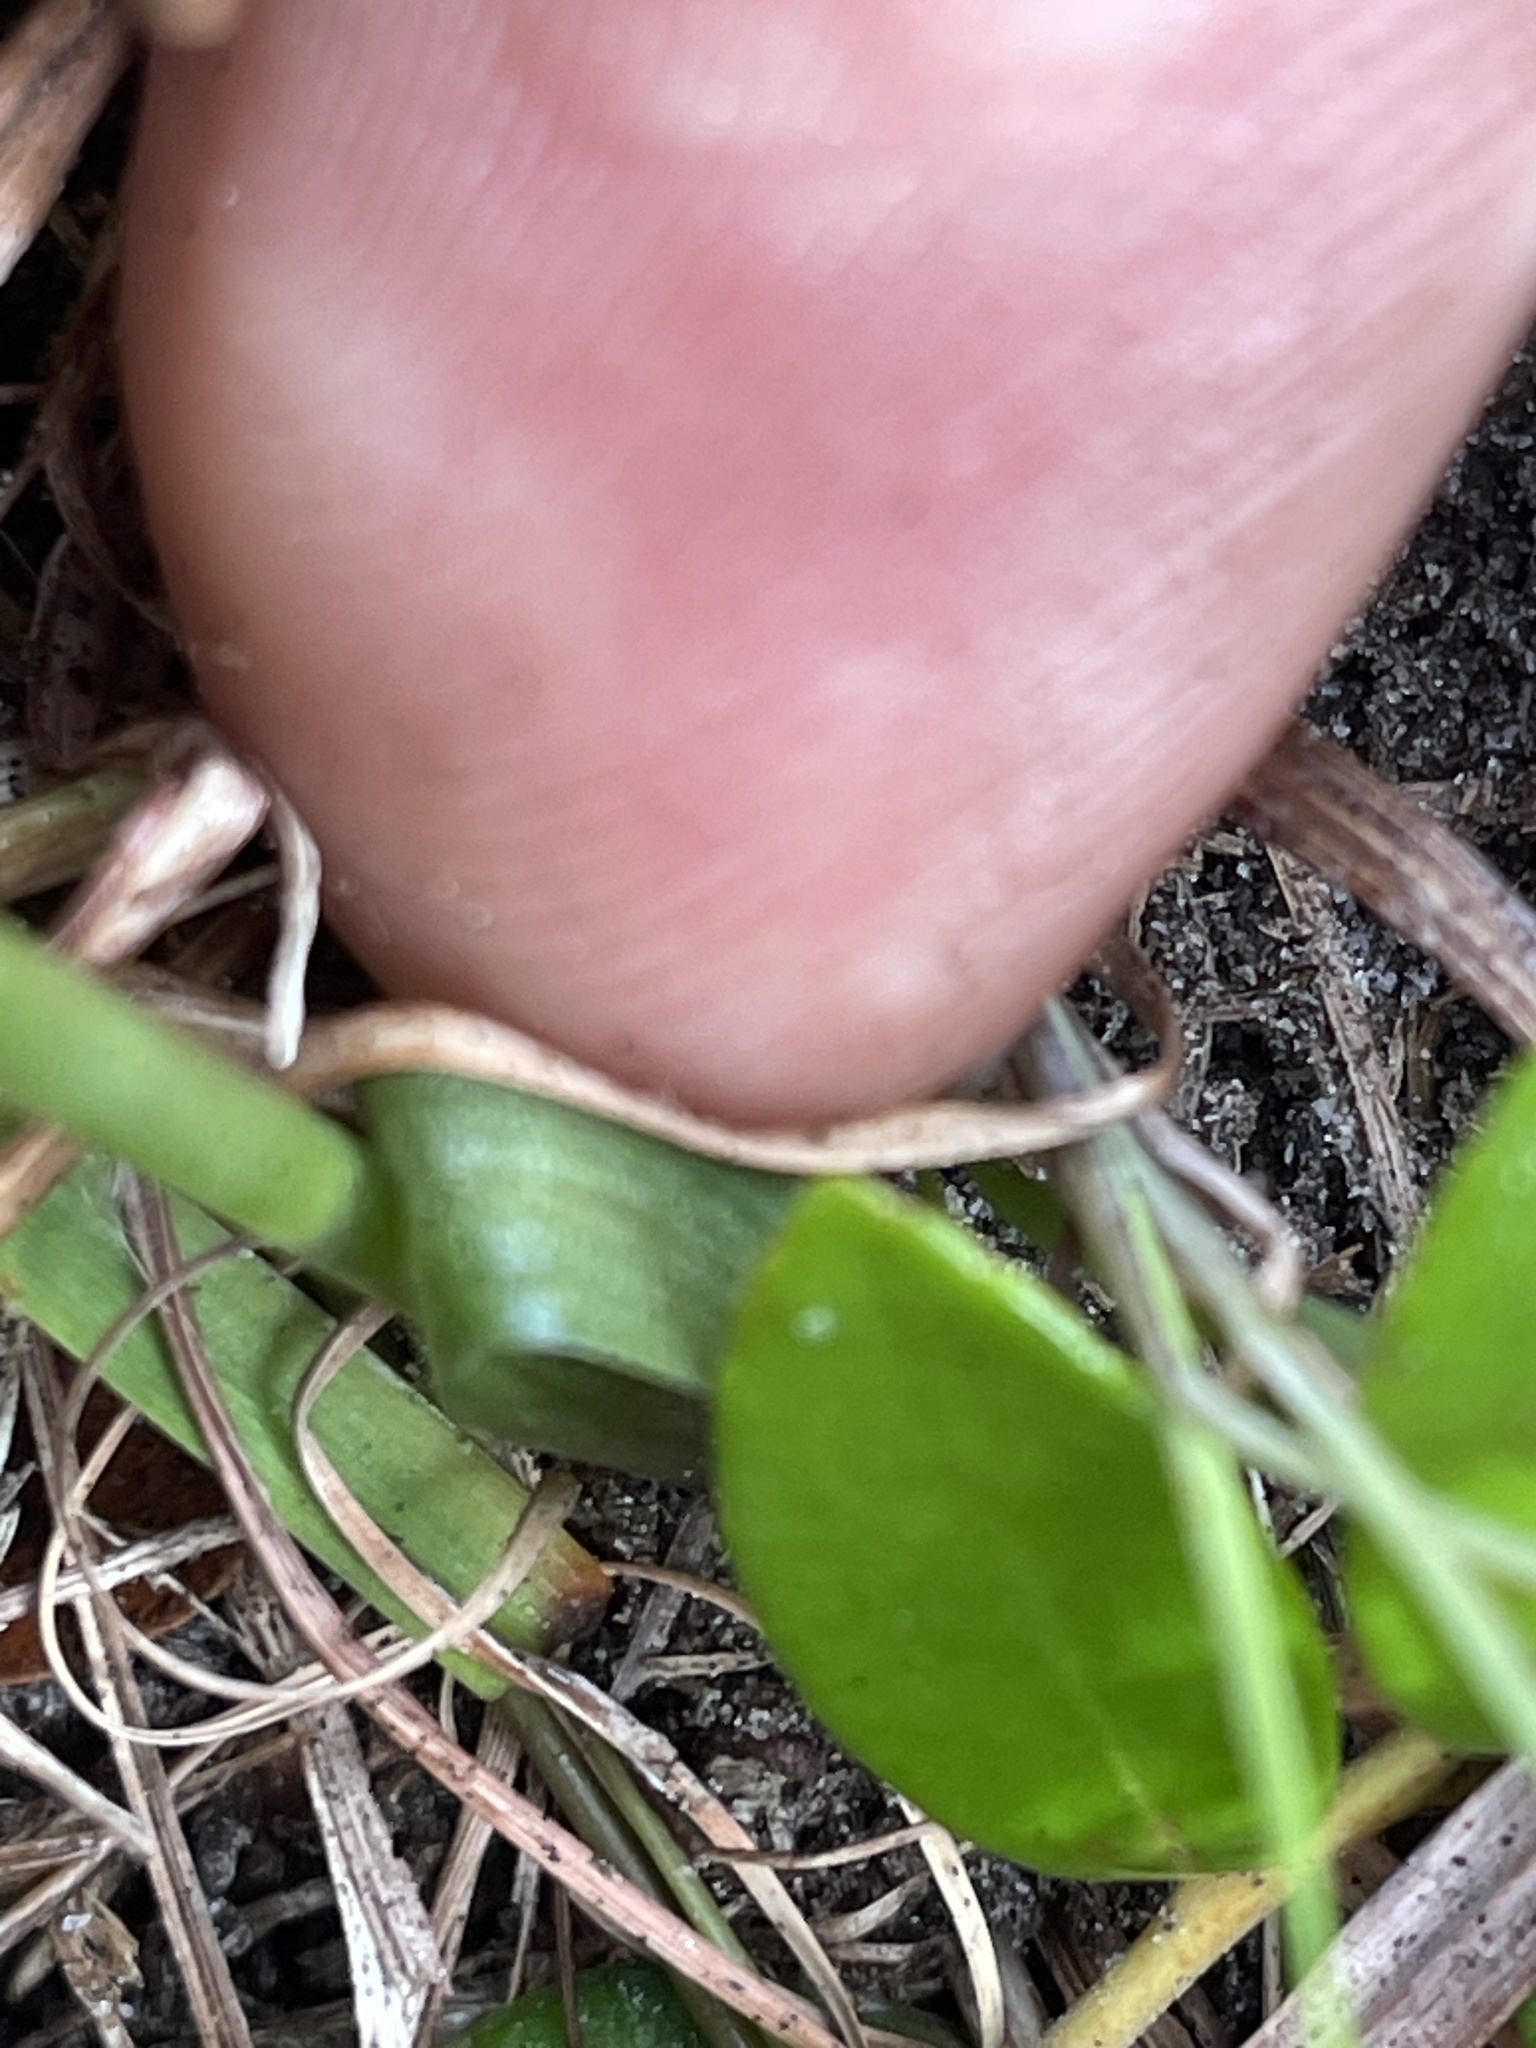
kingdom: Plantae
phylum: Tracheophyta
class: Liliopsida
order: Asparagales
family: Orchidaceae
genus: Spiranthes
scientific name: Spiranthes longilabris
